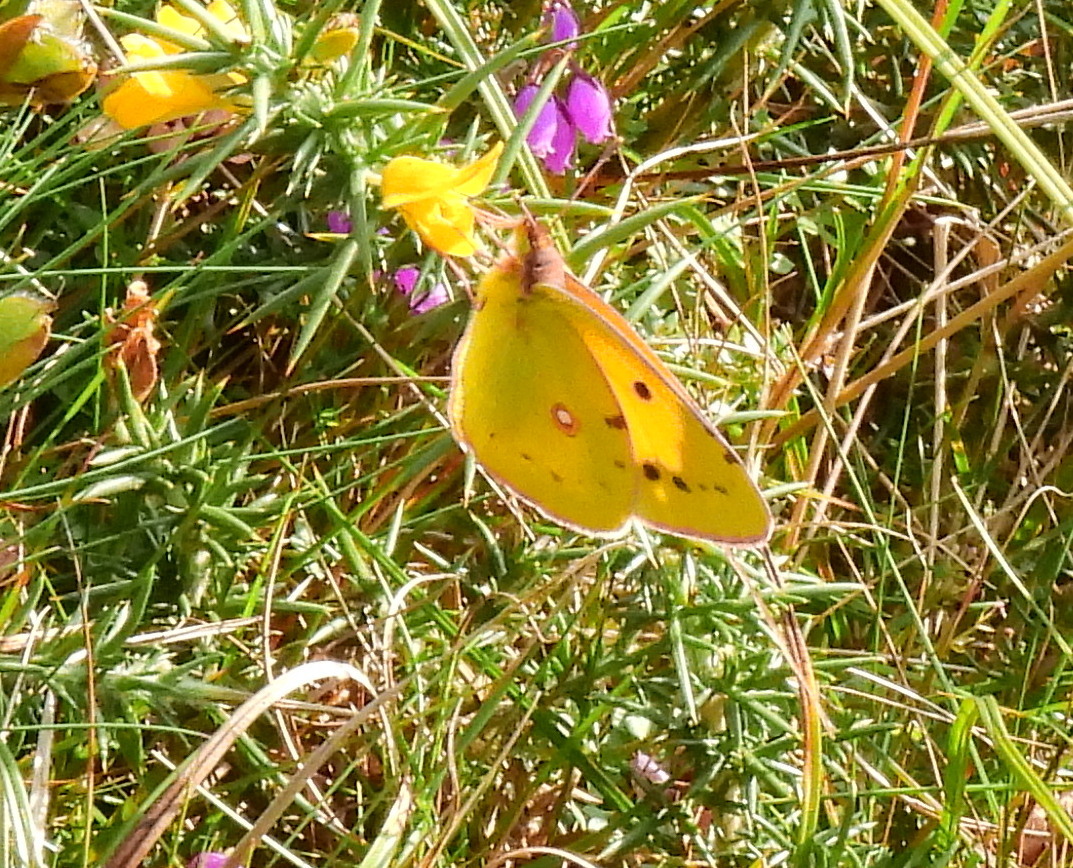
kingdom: Animalia
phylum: Arthropoda
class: Insecta
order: Lepidoptera
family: Pieridae
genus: Colias
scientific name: Colias croceus
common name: Clouded yellow
